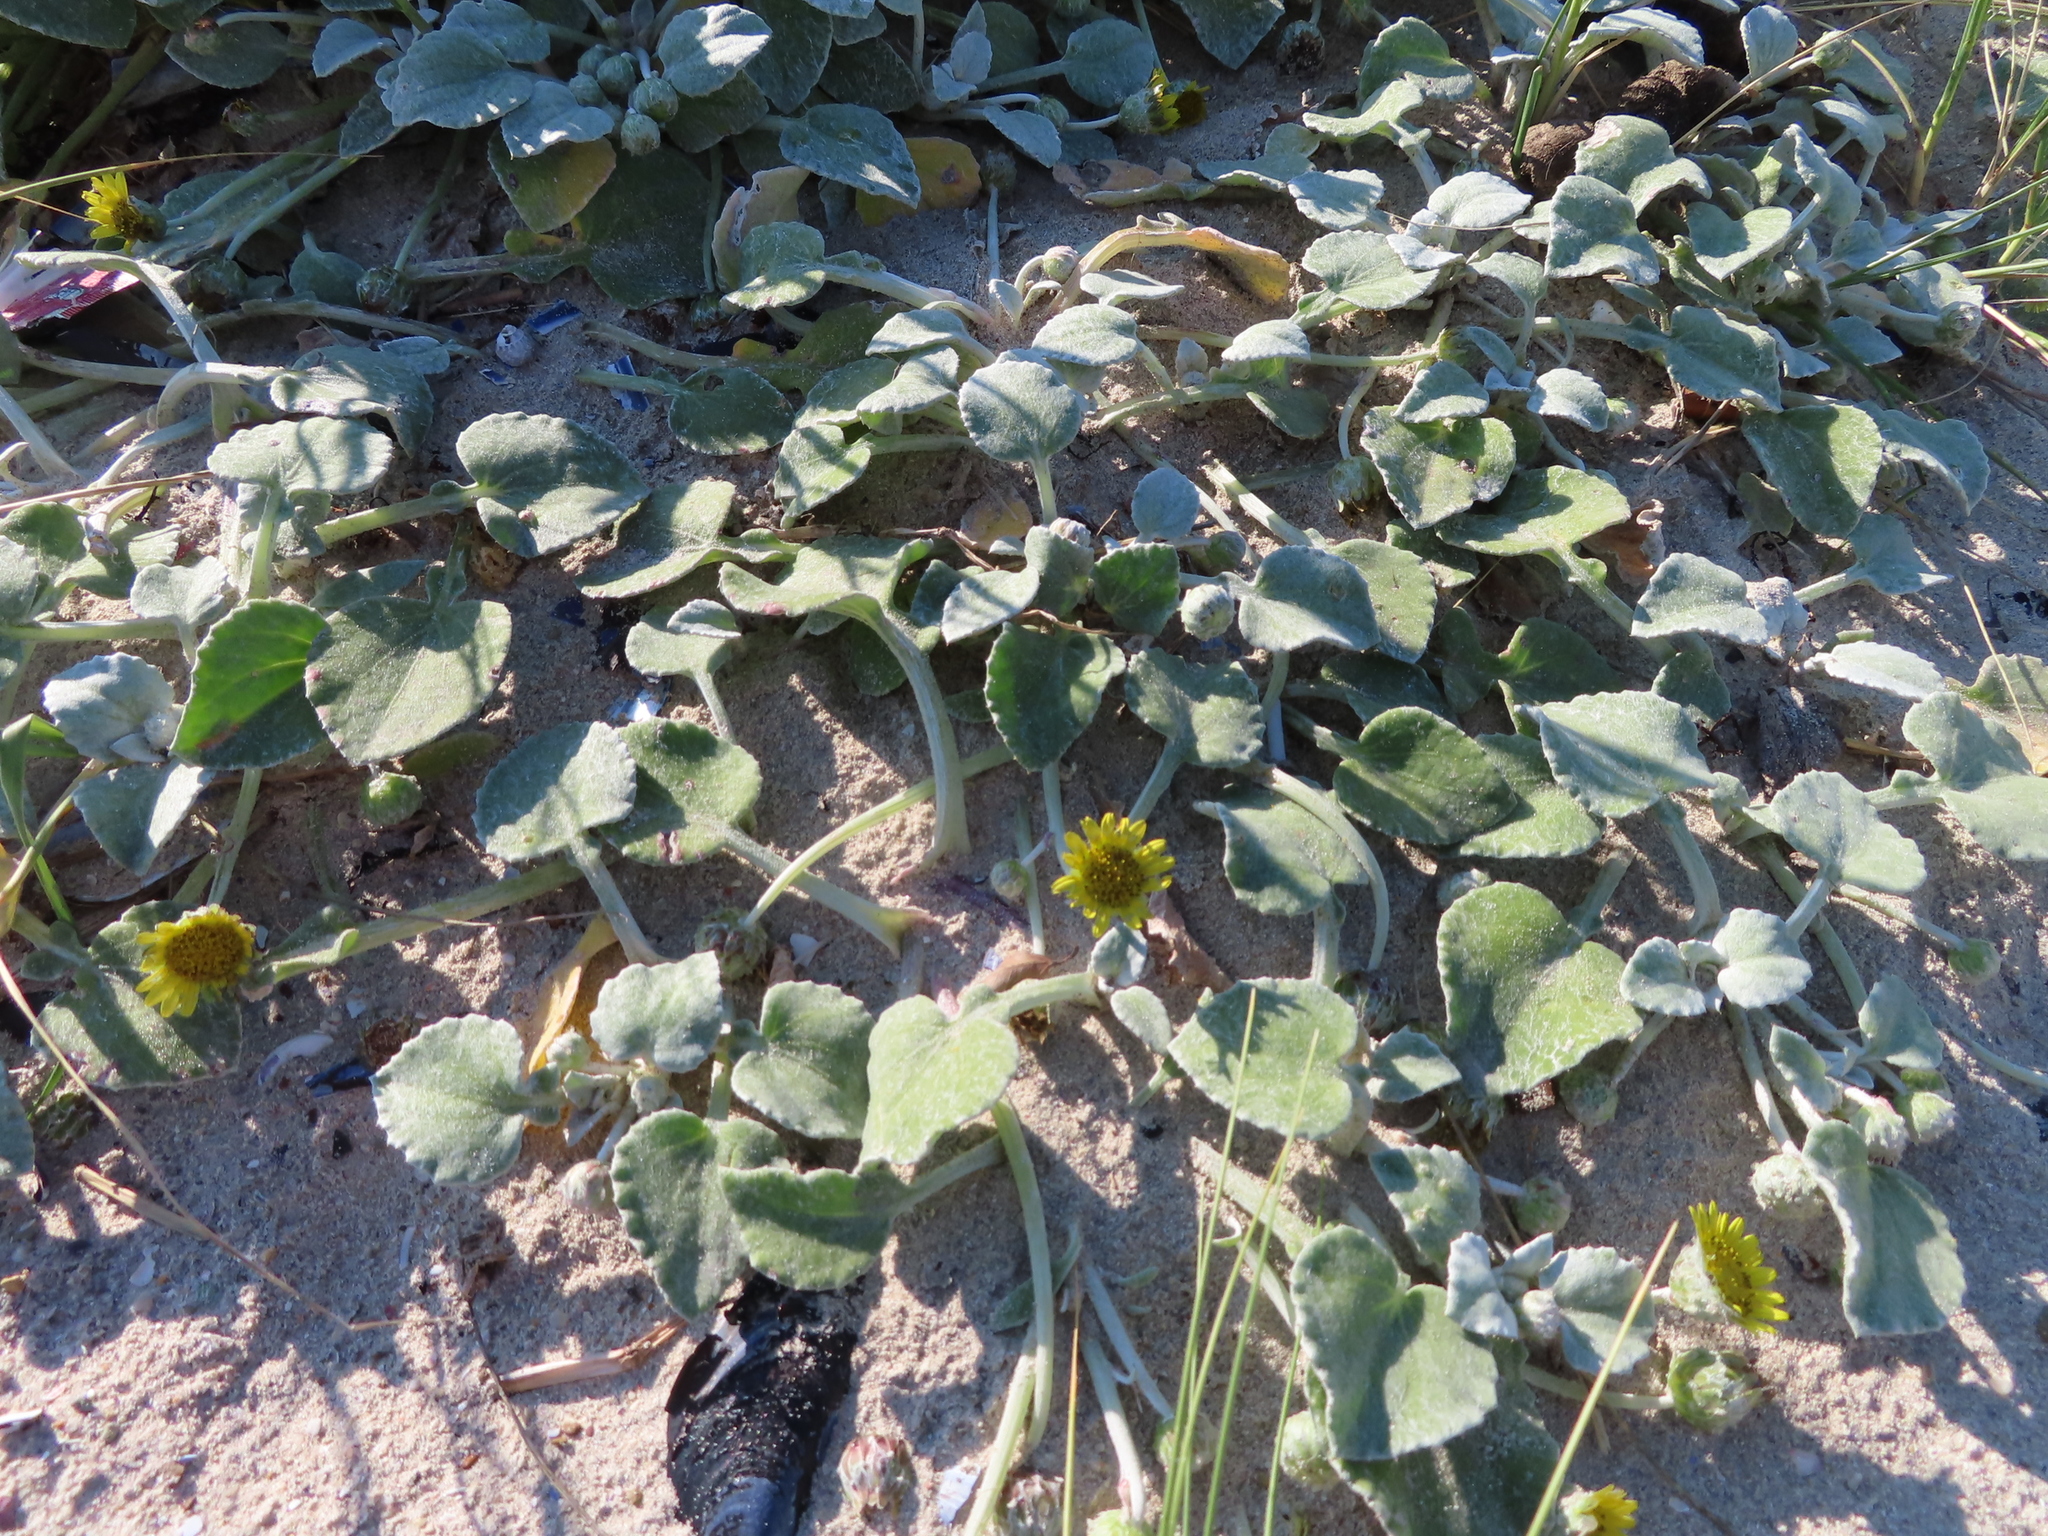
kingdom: Plantae
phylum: Tracheophyta
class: Magnoliopsida
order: Asterales
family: Asteraceae
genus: Arctotheca
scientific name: Arctotheca populifolia
